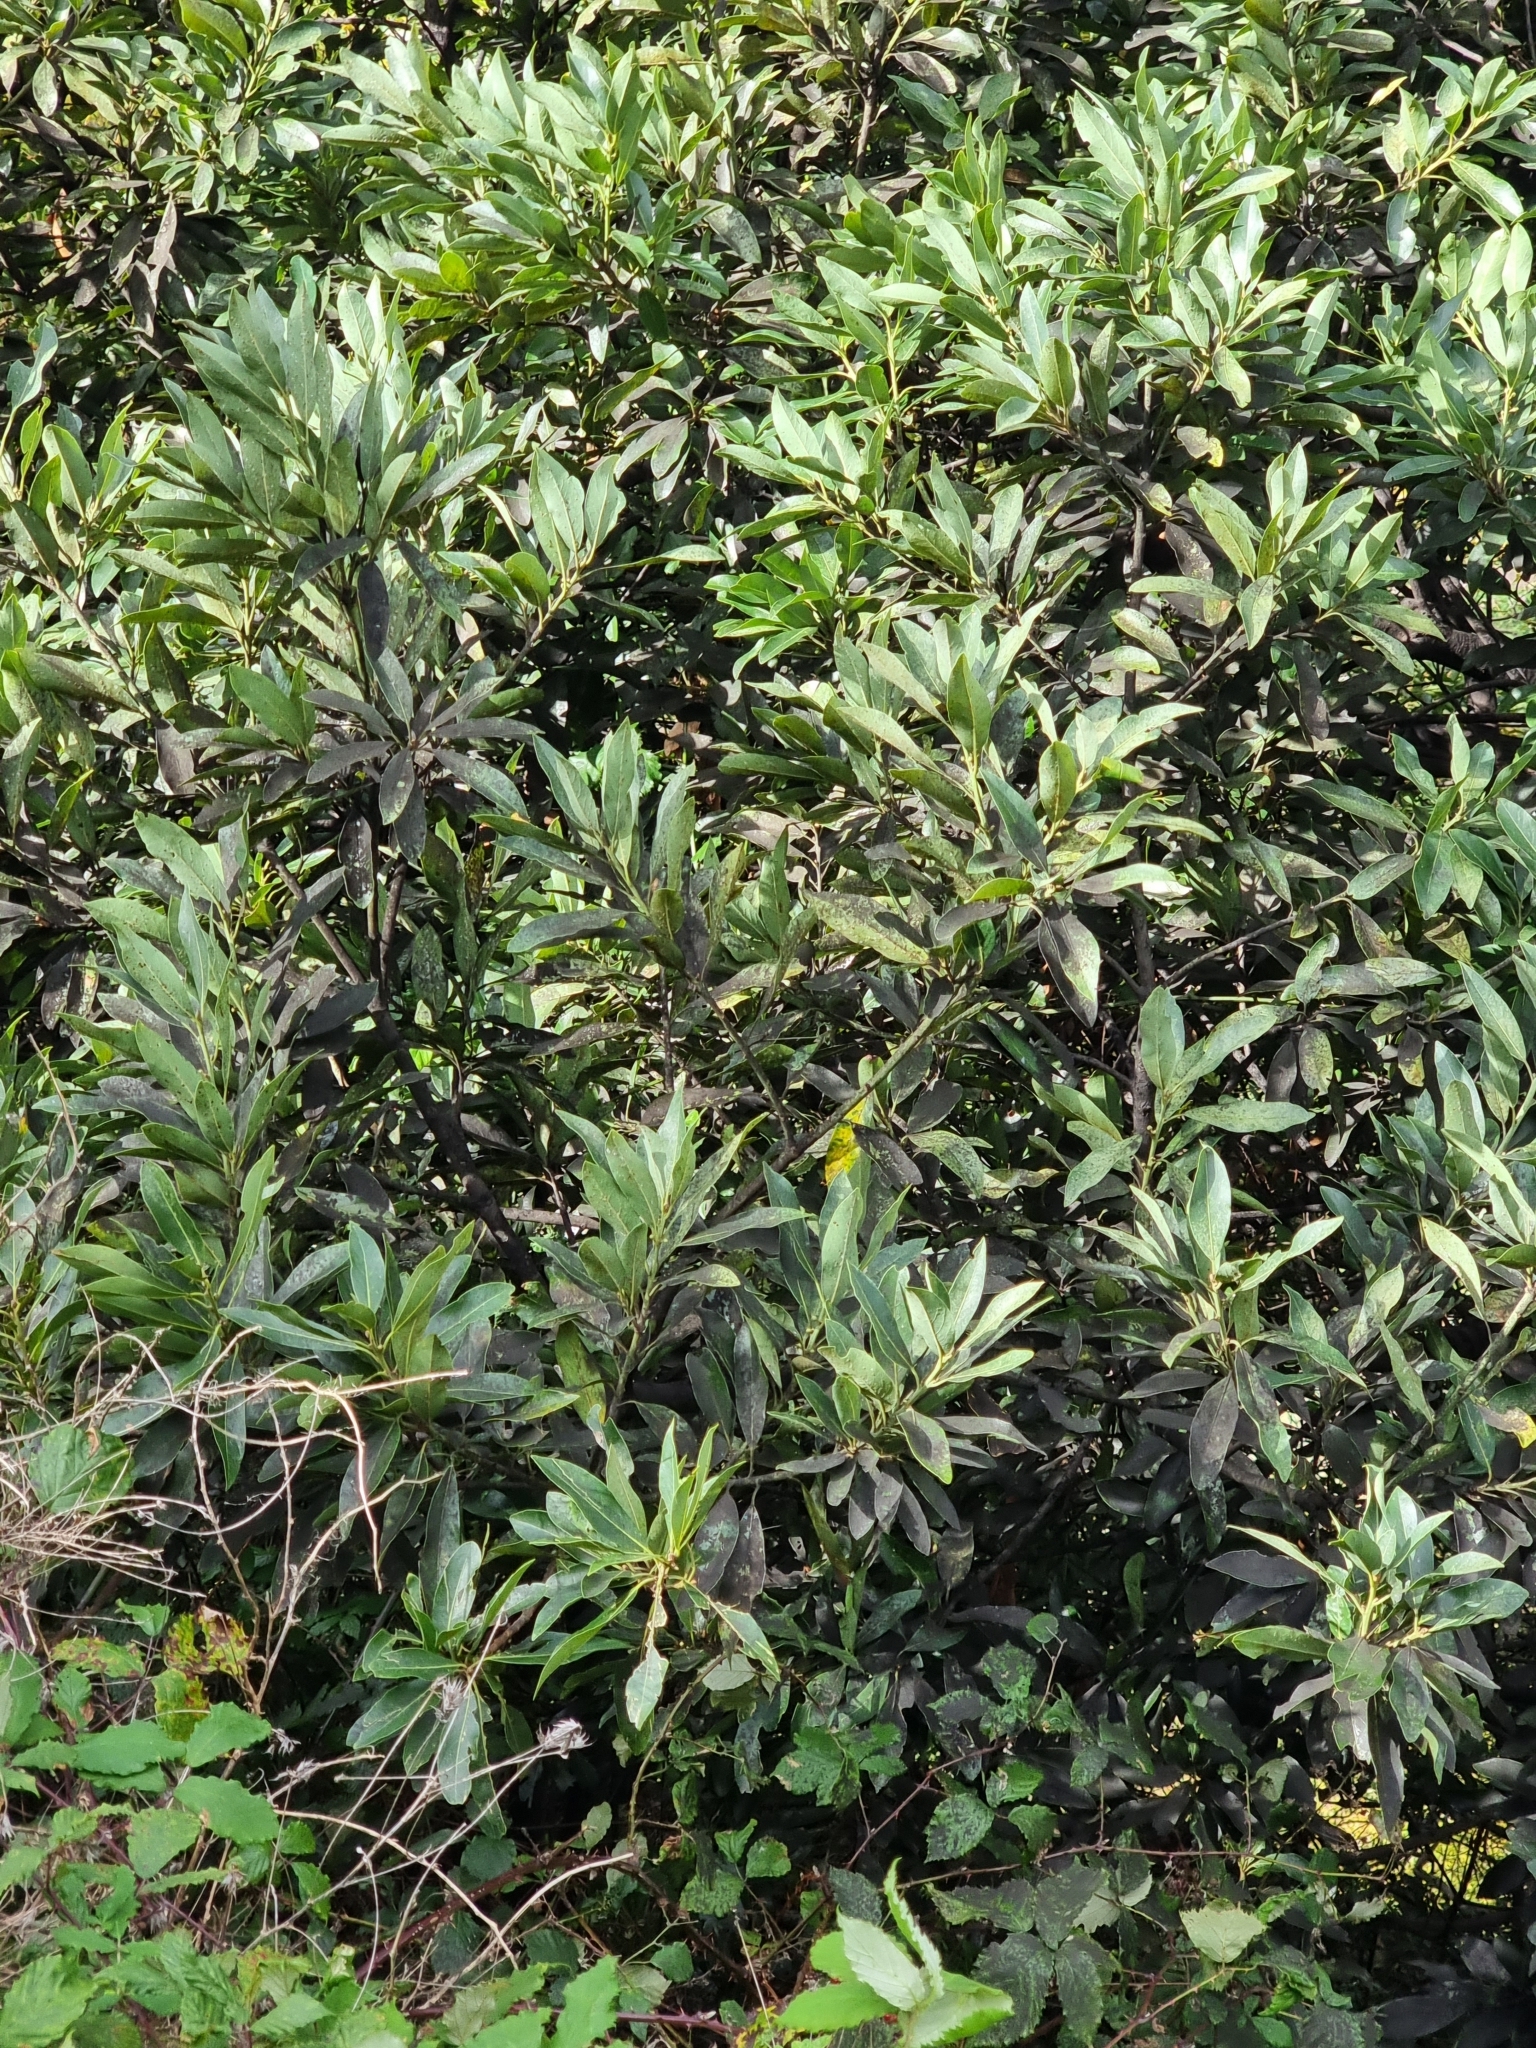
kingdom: Plantae
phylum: Tracheophyta
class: Magnoliopsida
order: Laurales
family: Lauraceae
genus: Laurus
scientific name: Laurus novocanariensis
